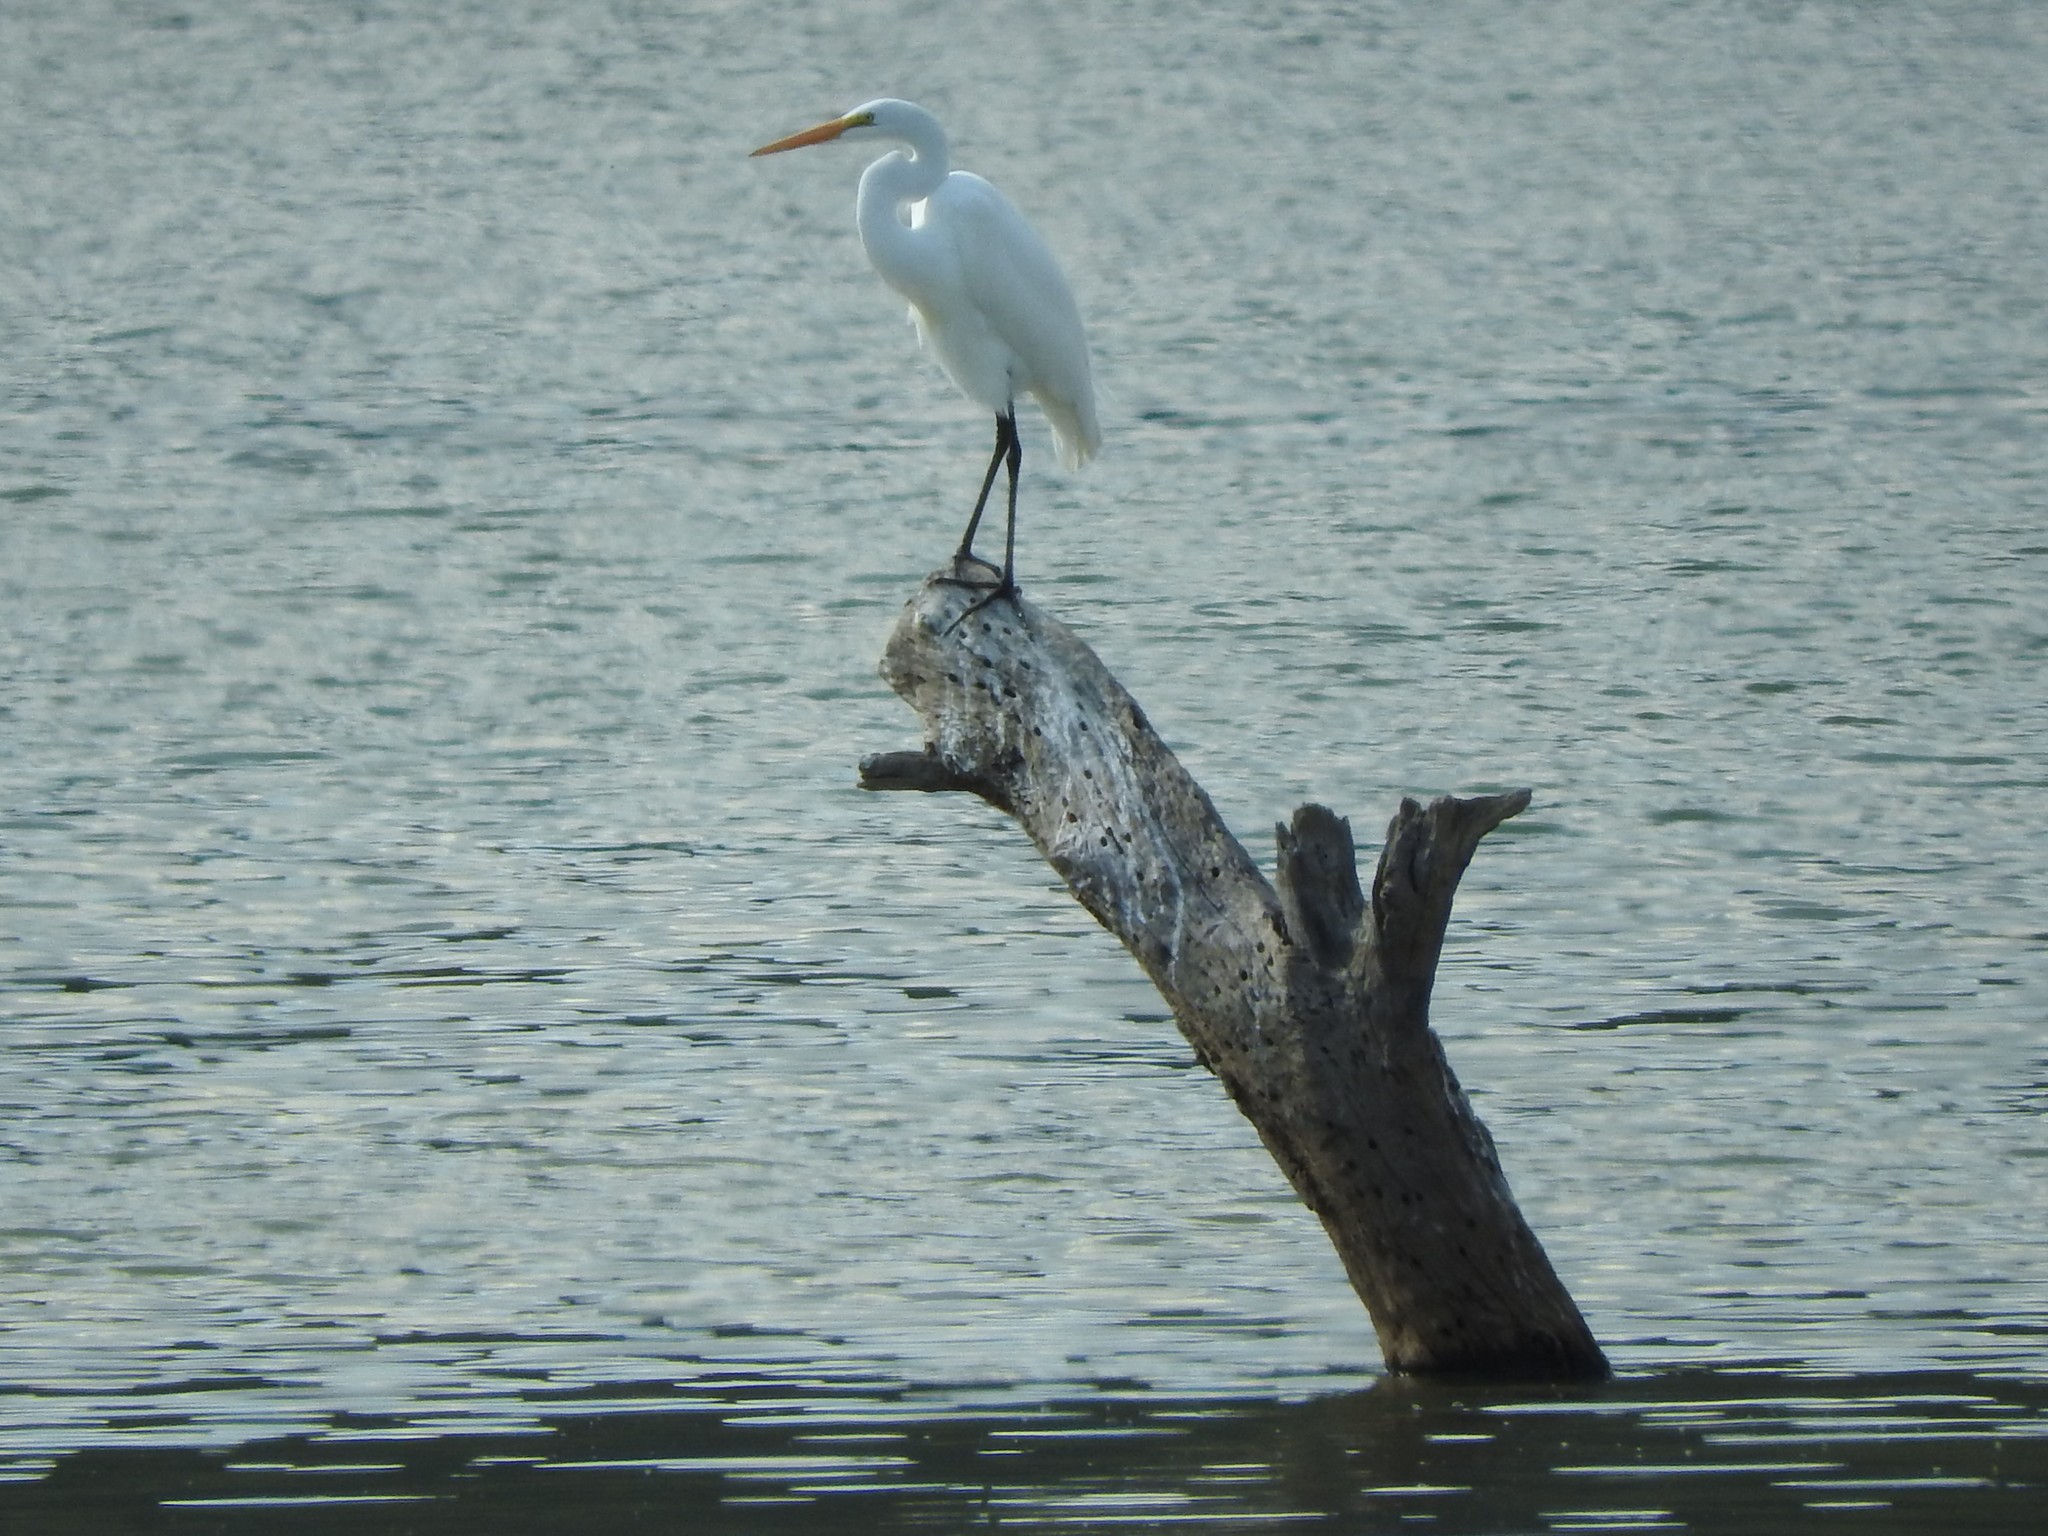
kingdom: Animalia
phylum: Chordata
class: Aves
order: Pelecaniformes
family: Ardeidae
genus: Ardea
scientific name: Ardea alba
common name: Great egret
